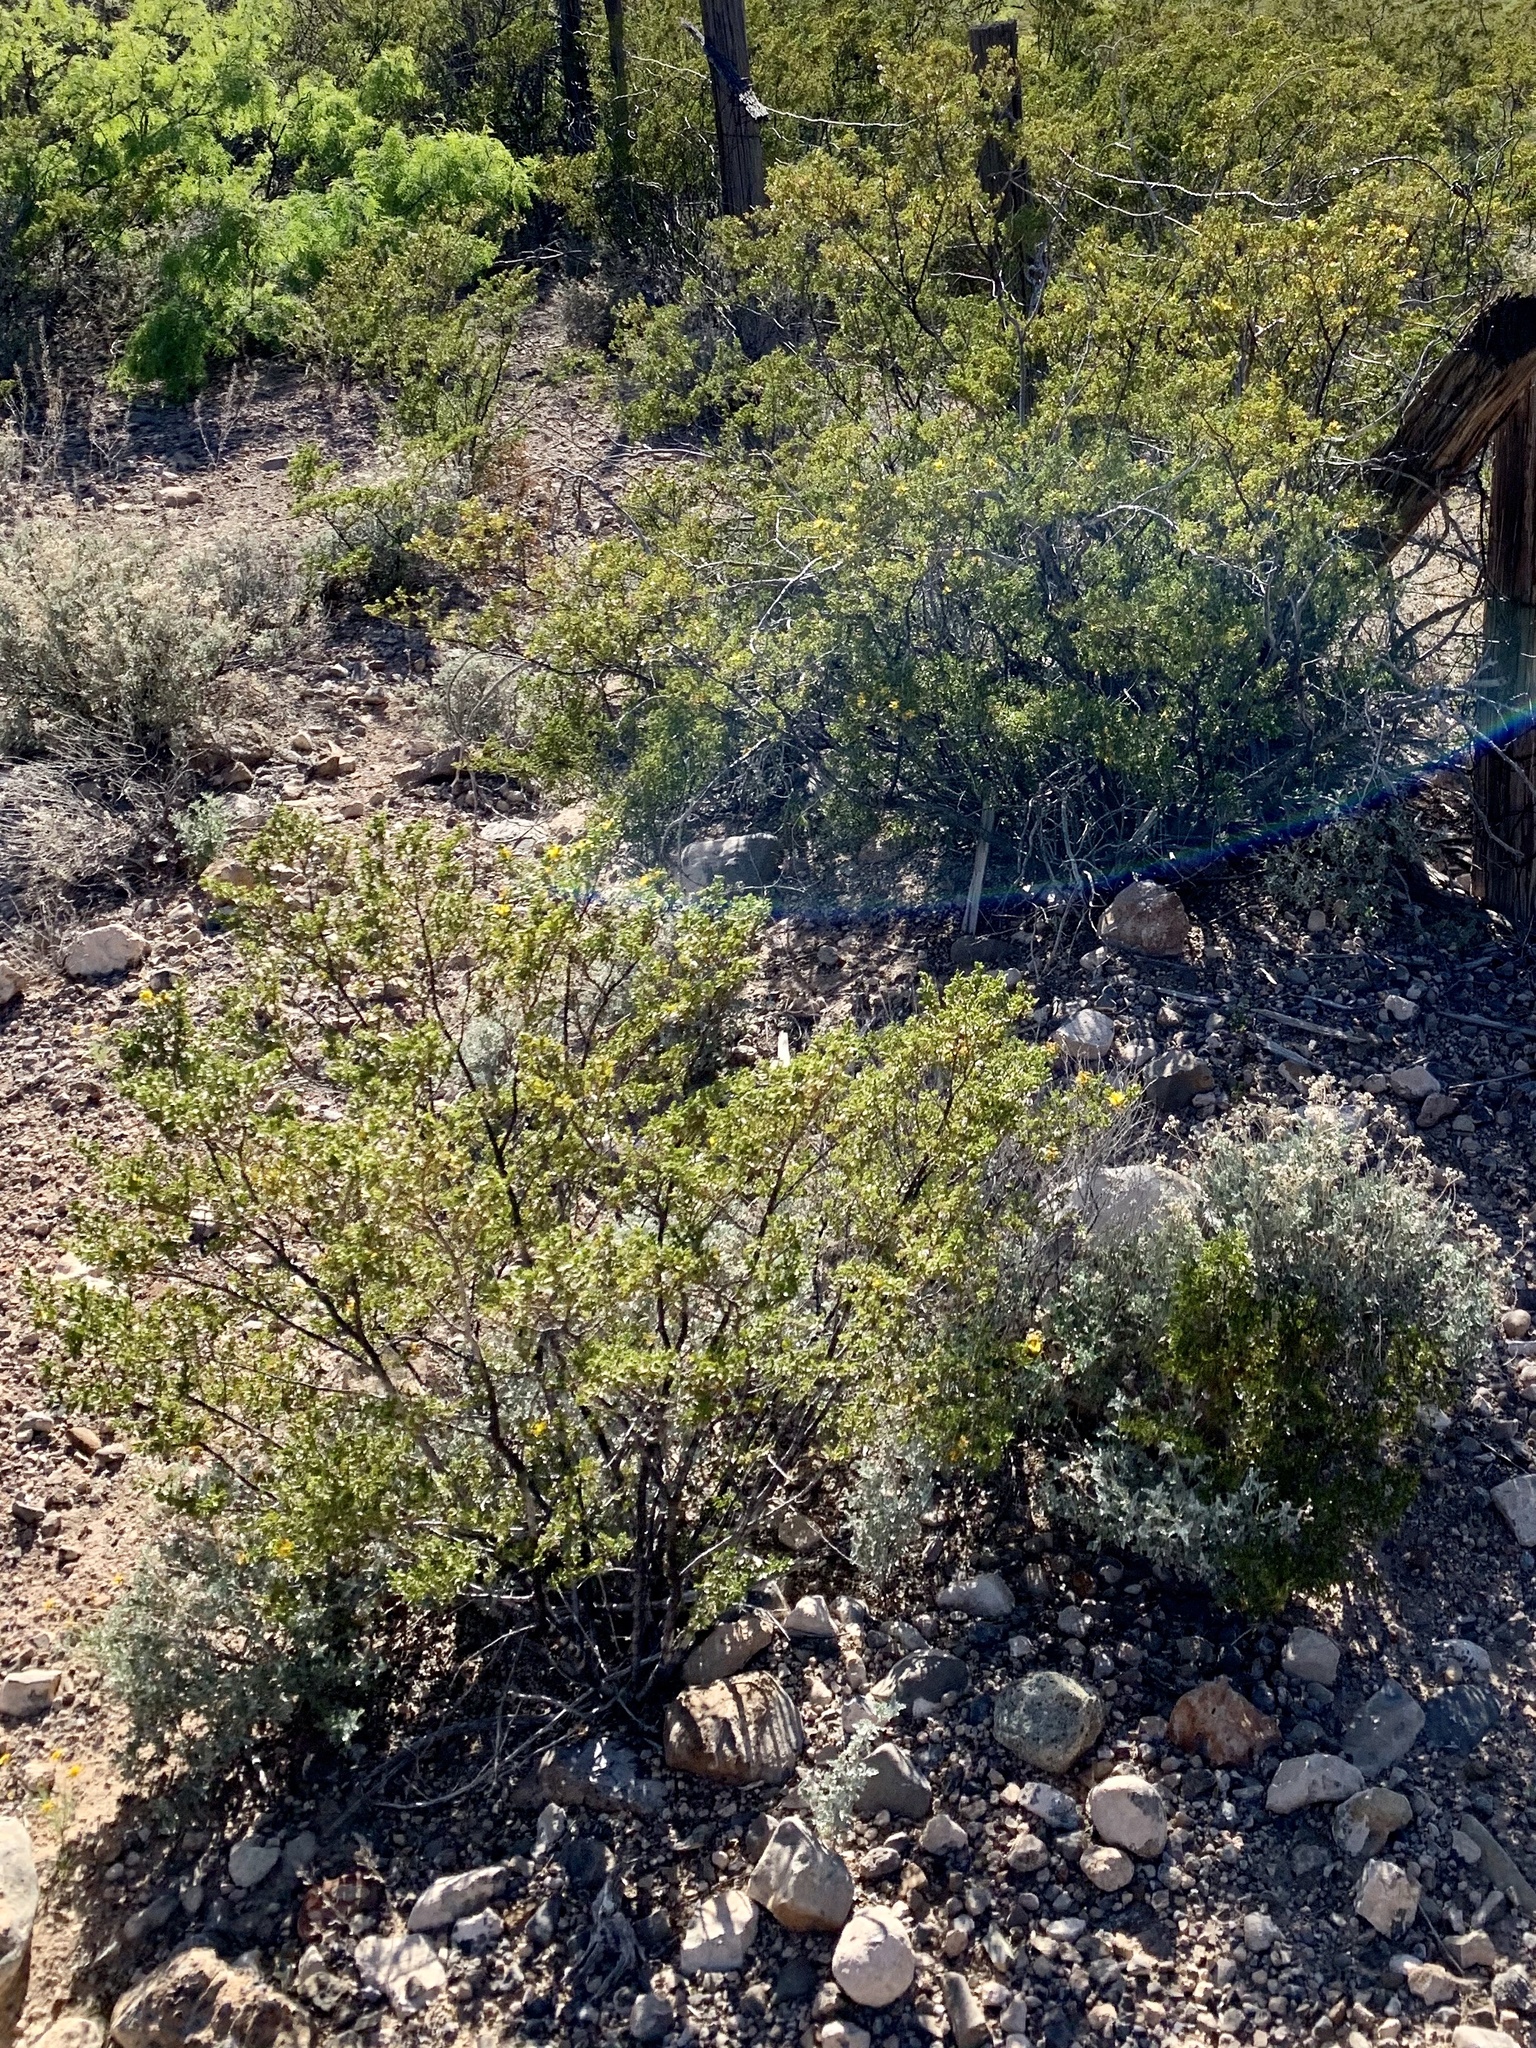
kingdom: Plantae
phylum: Tracheophyta
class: Magnoliopsida
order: Zygophyllales
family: Zygophyllaceae
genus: Larrea
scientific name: Larrea tridentata
